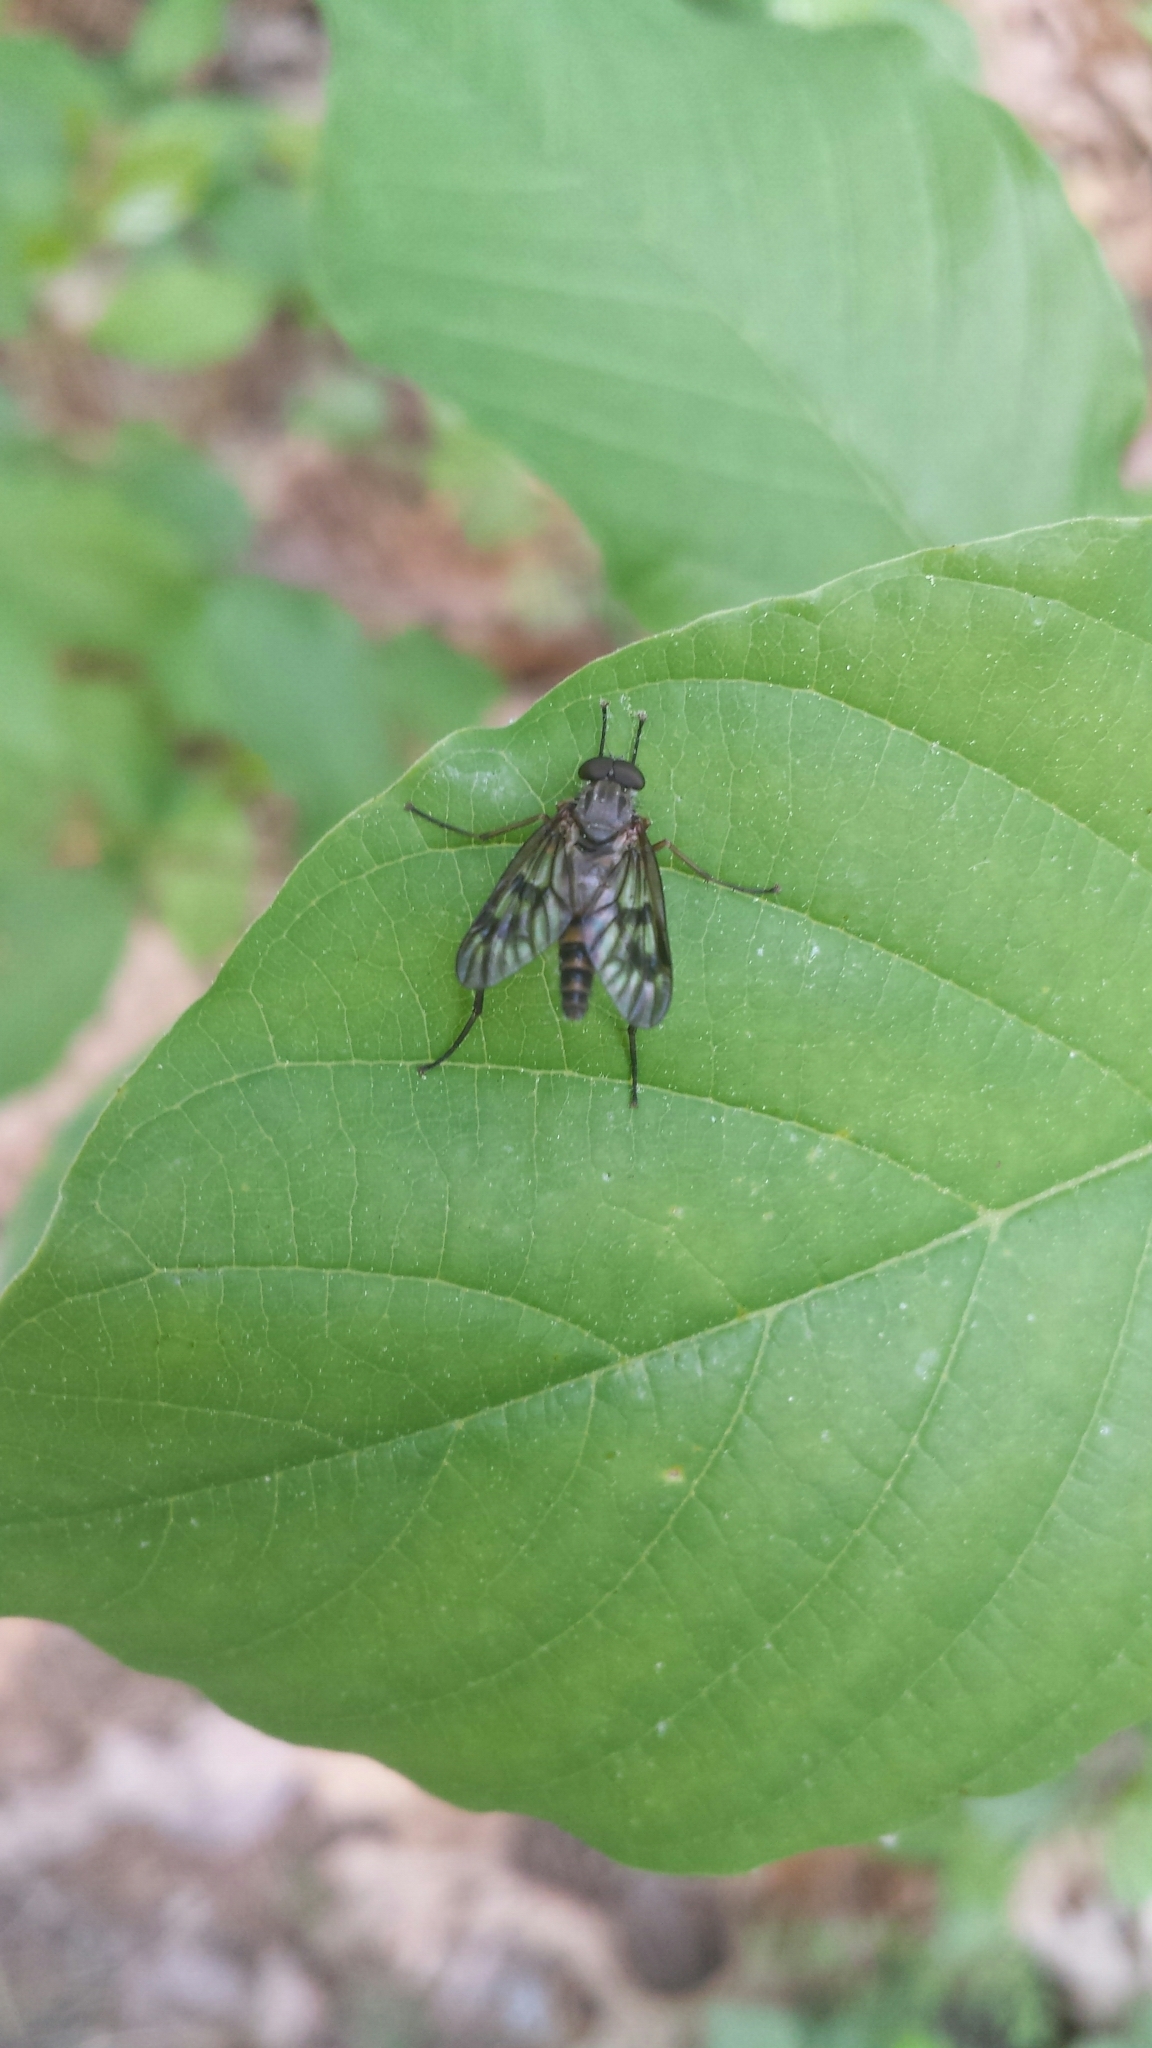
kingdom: Animalia
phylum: Arthropoda
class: Insecta
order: Diptera
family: Rhagionidae
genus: Rhagio
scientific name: Rhagio mystaceus
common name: Common snipe fly
